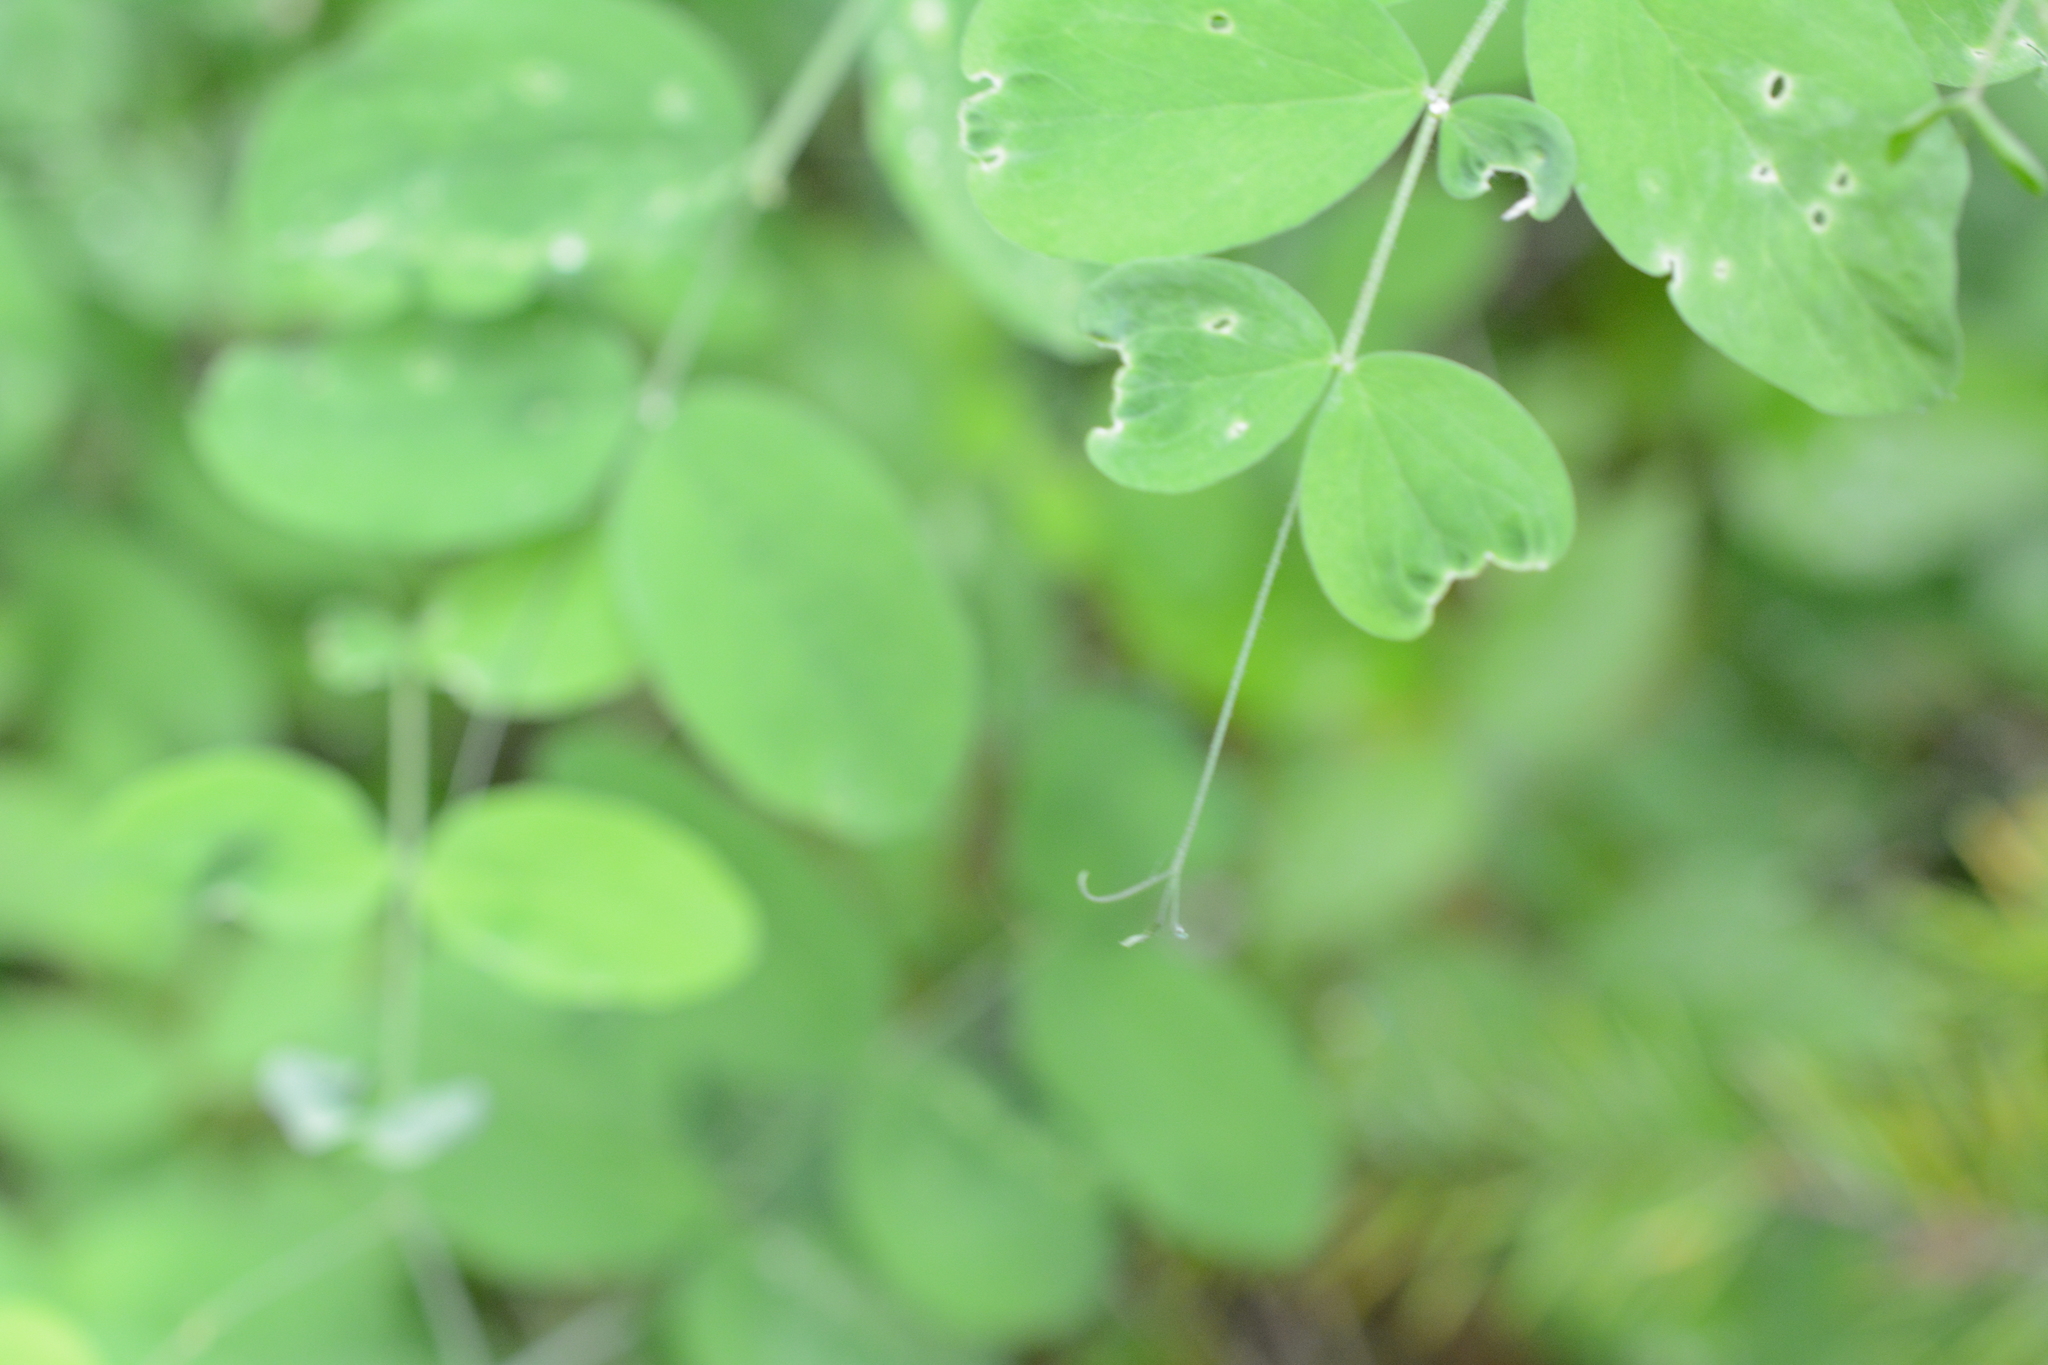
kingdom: Plantae
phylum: Tracheophyta
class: Magnoliopsida
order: Fabales
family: Fabaceae
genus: Lathyrus
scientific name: Lathyrus nevadensis
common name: Sierra nevada peavine
